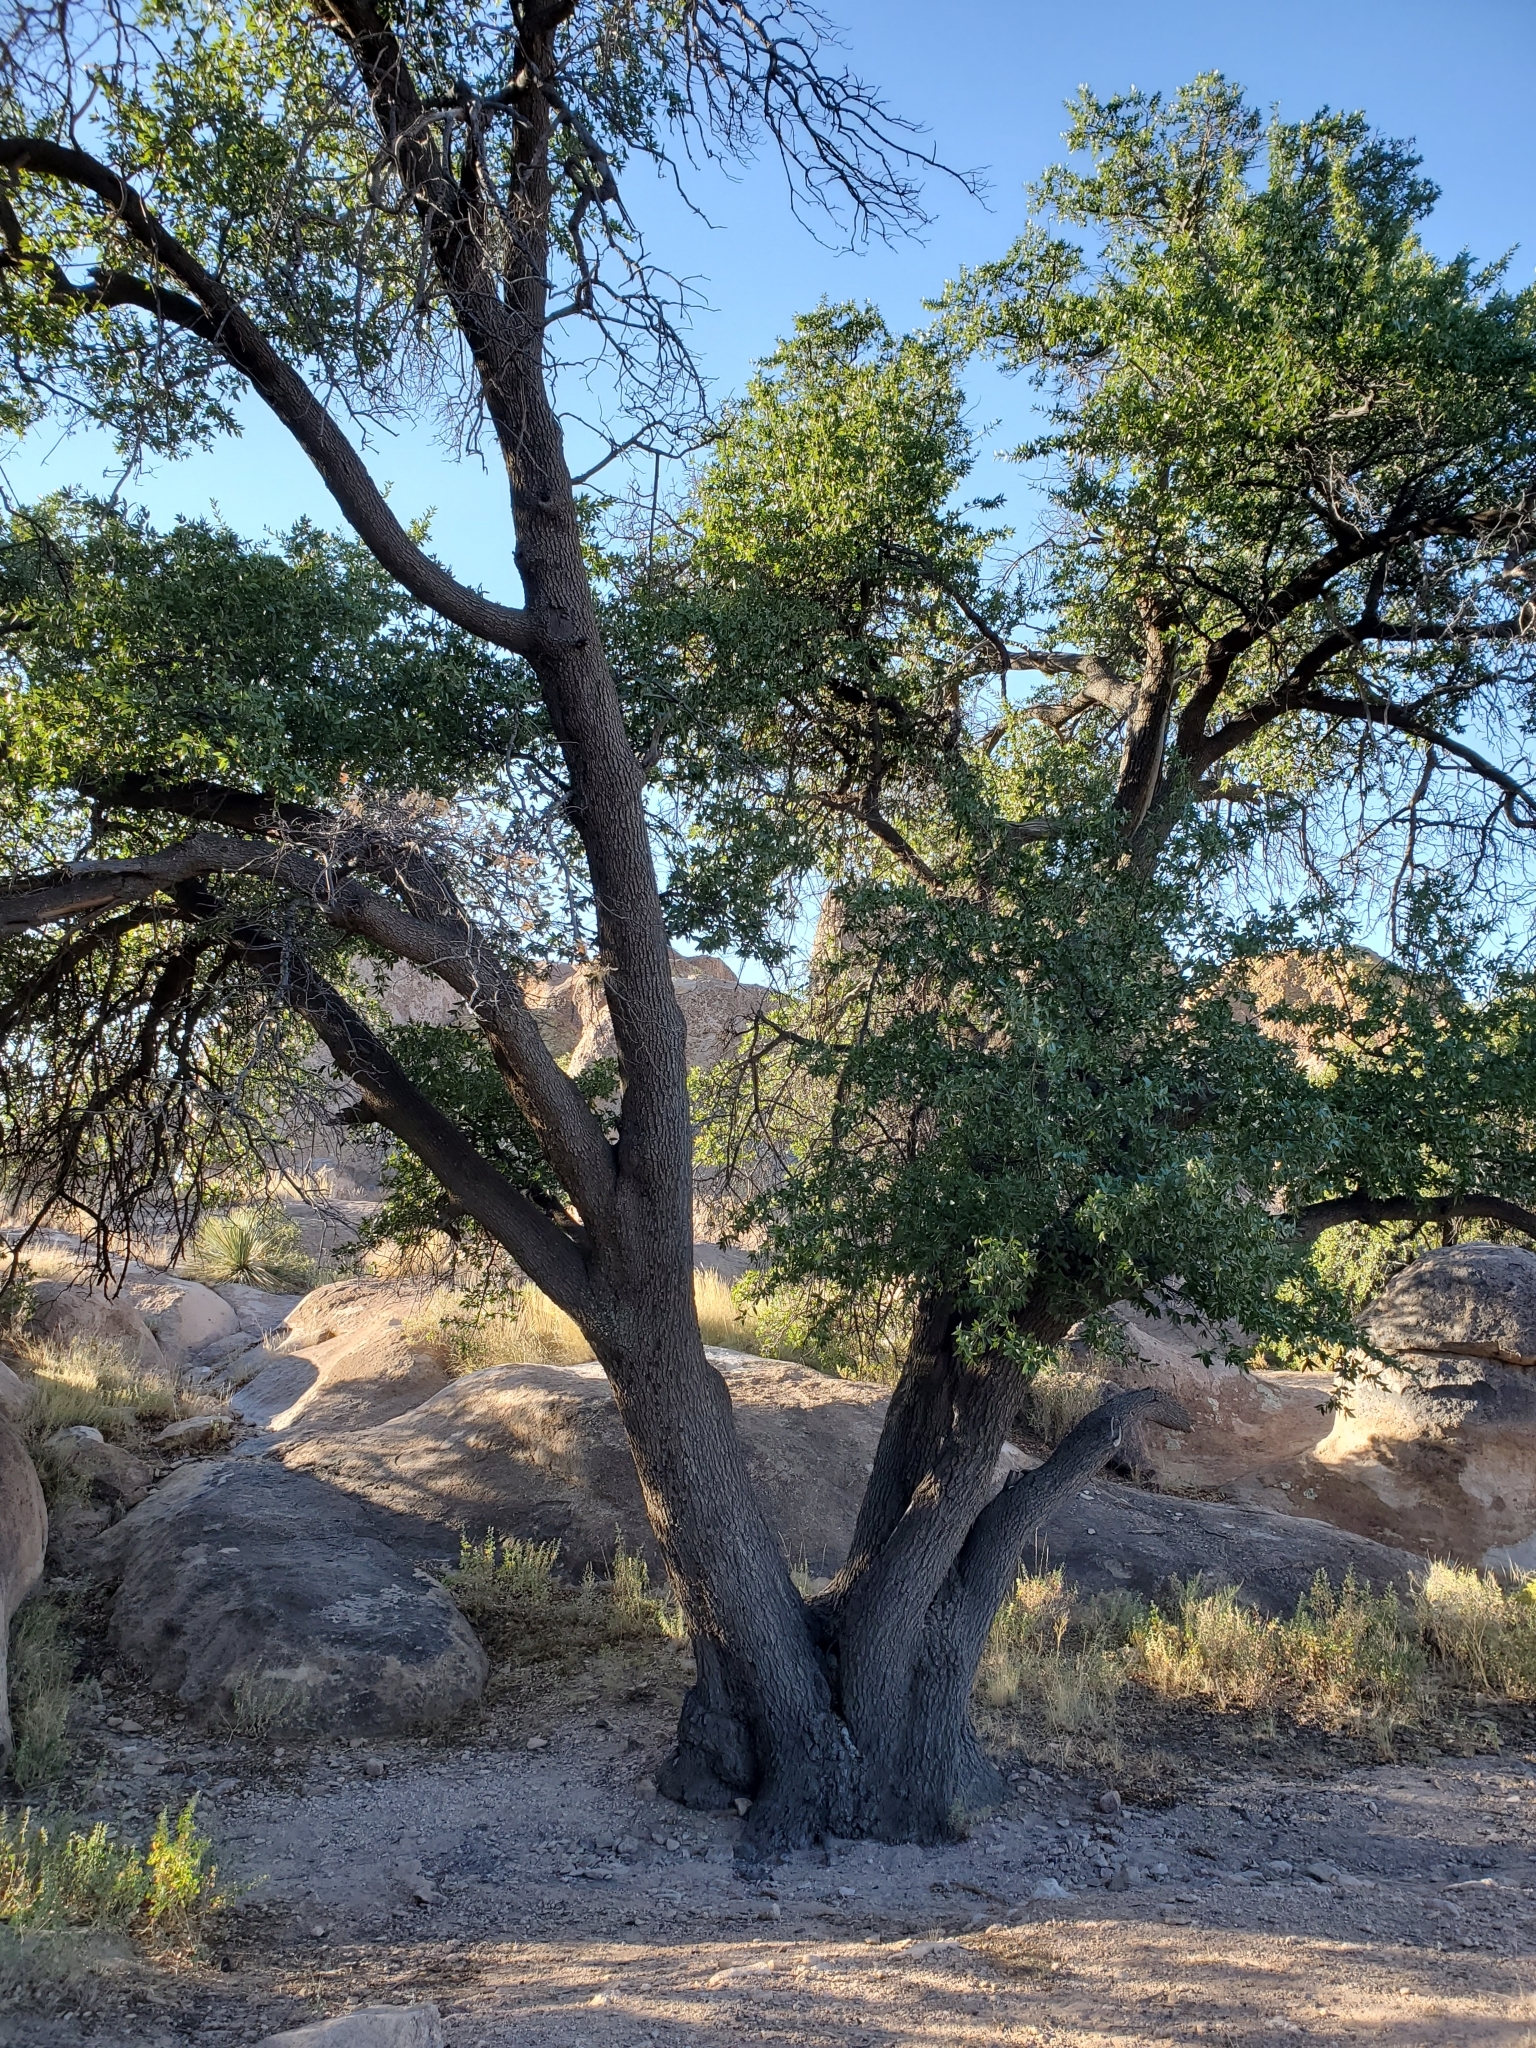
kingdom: Plantae
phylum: Tracheophyta
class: Magnoliopsida
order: Fagales
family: Fagaceae
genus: Quercus
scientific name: Quercus emoryi
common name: Emory oak
